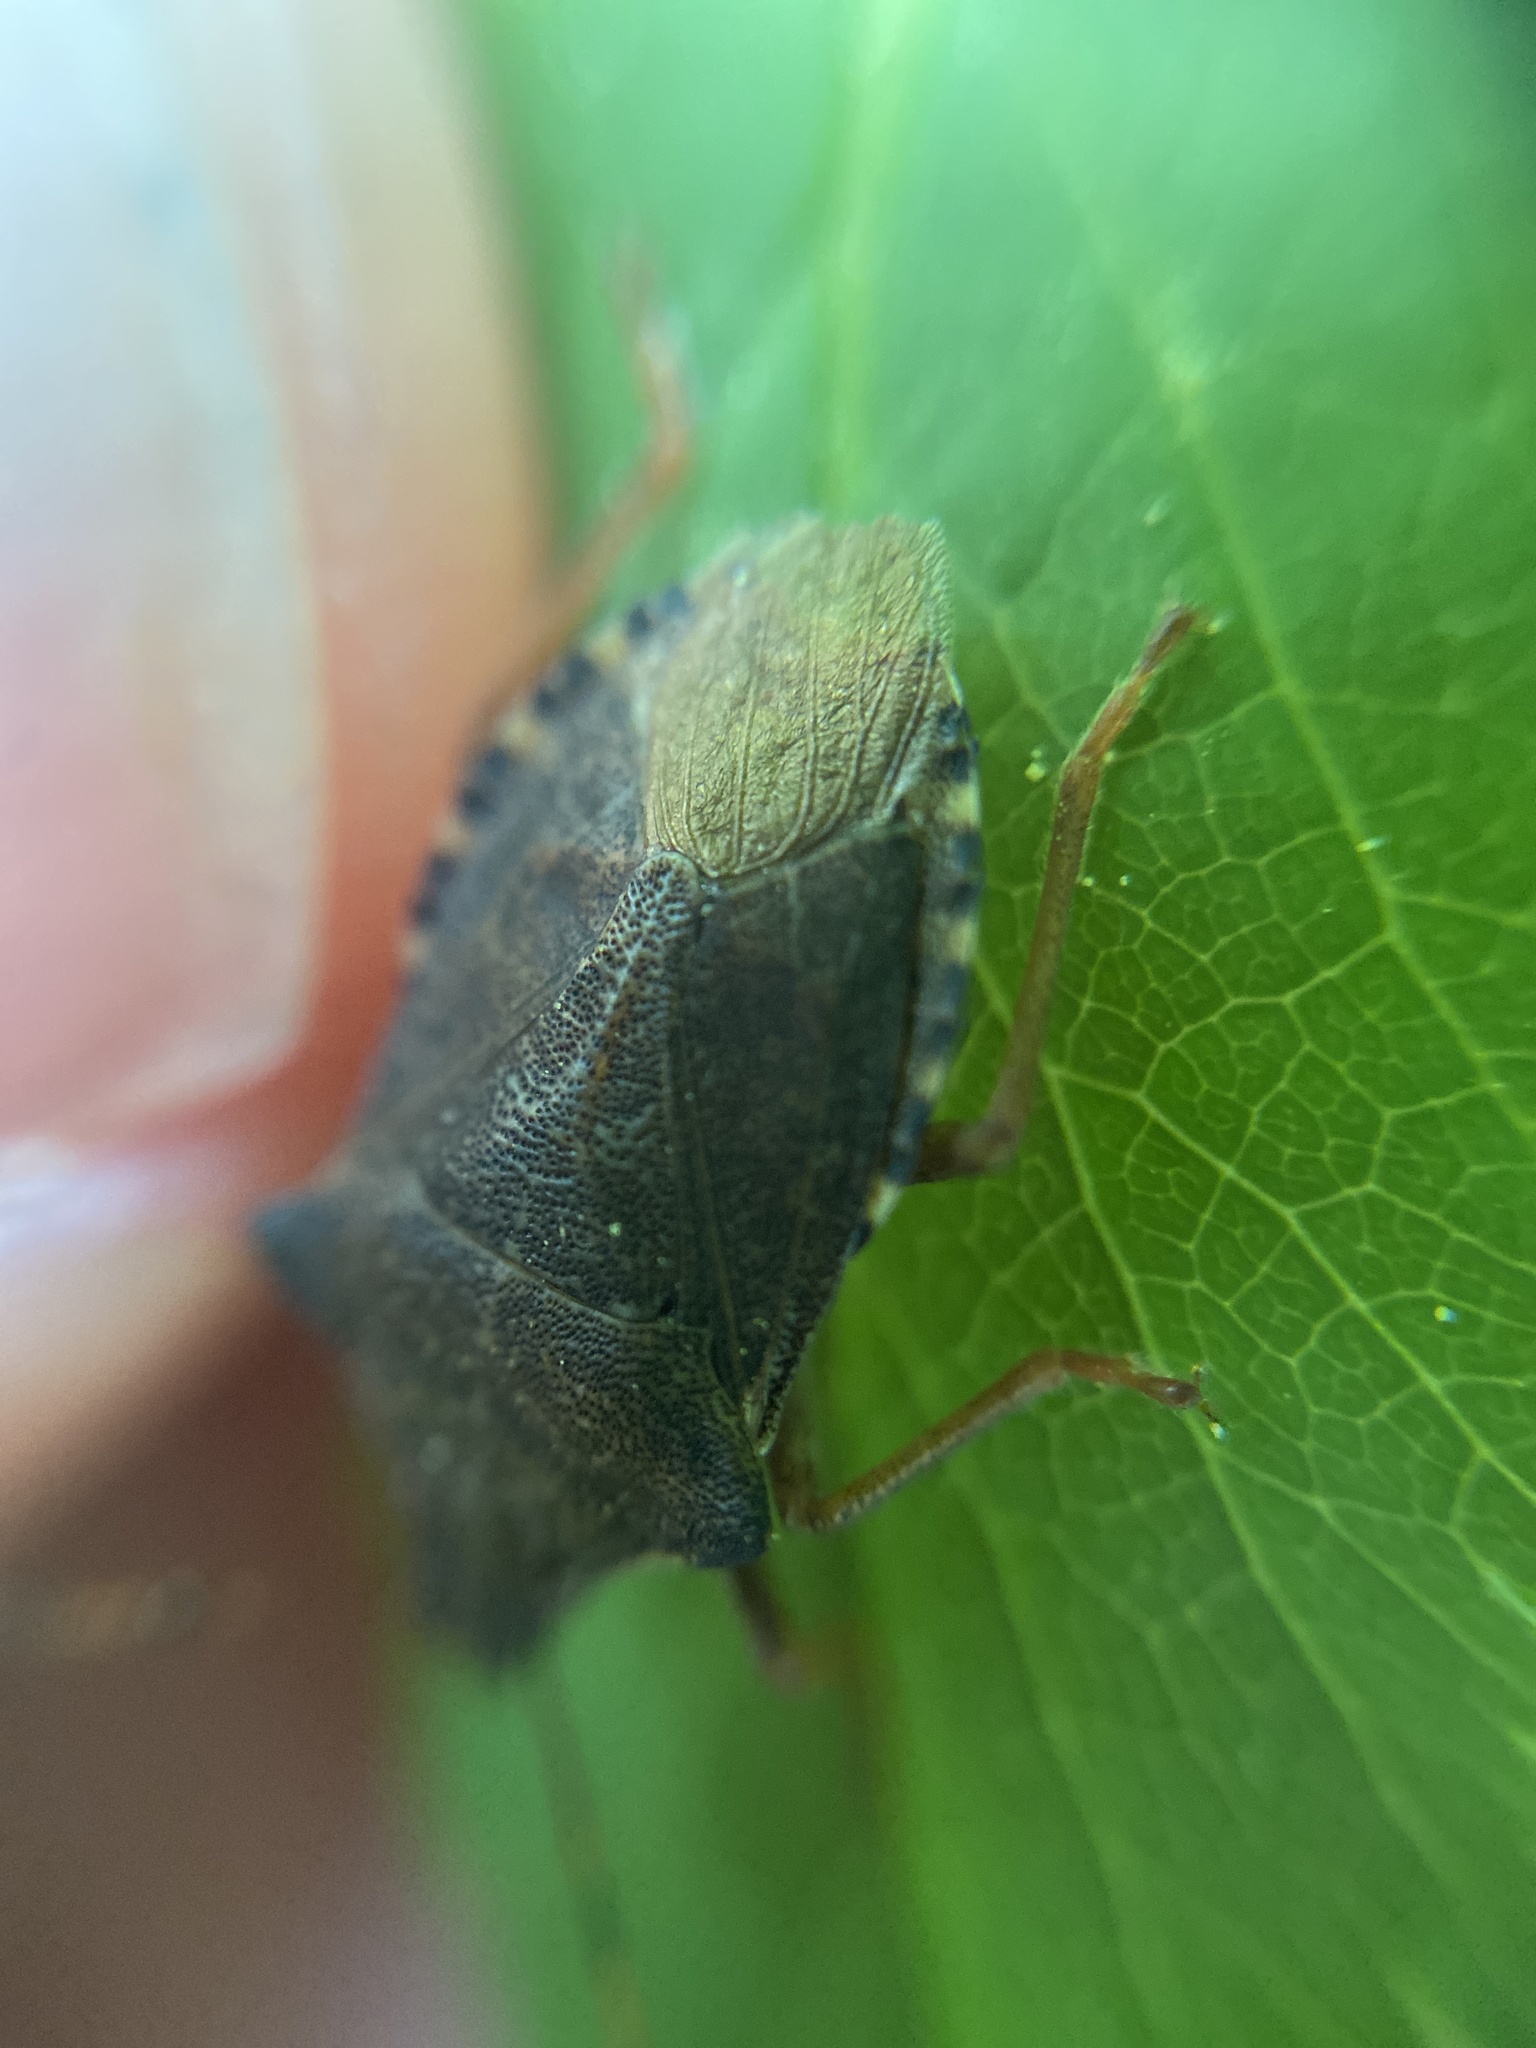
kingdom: Animalia
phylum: Arthropoda
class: Insecta
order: Hemiptera
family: Pentatomidae
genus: Arma
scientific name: Arma custos
